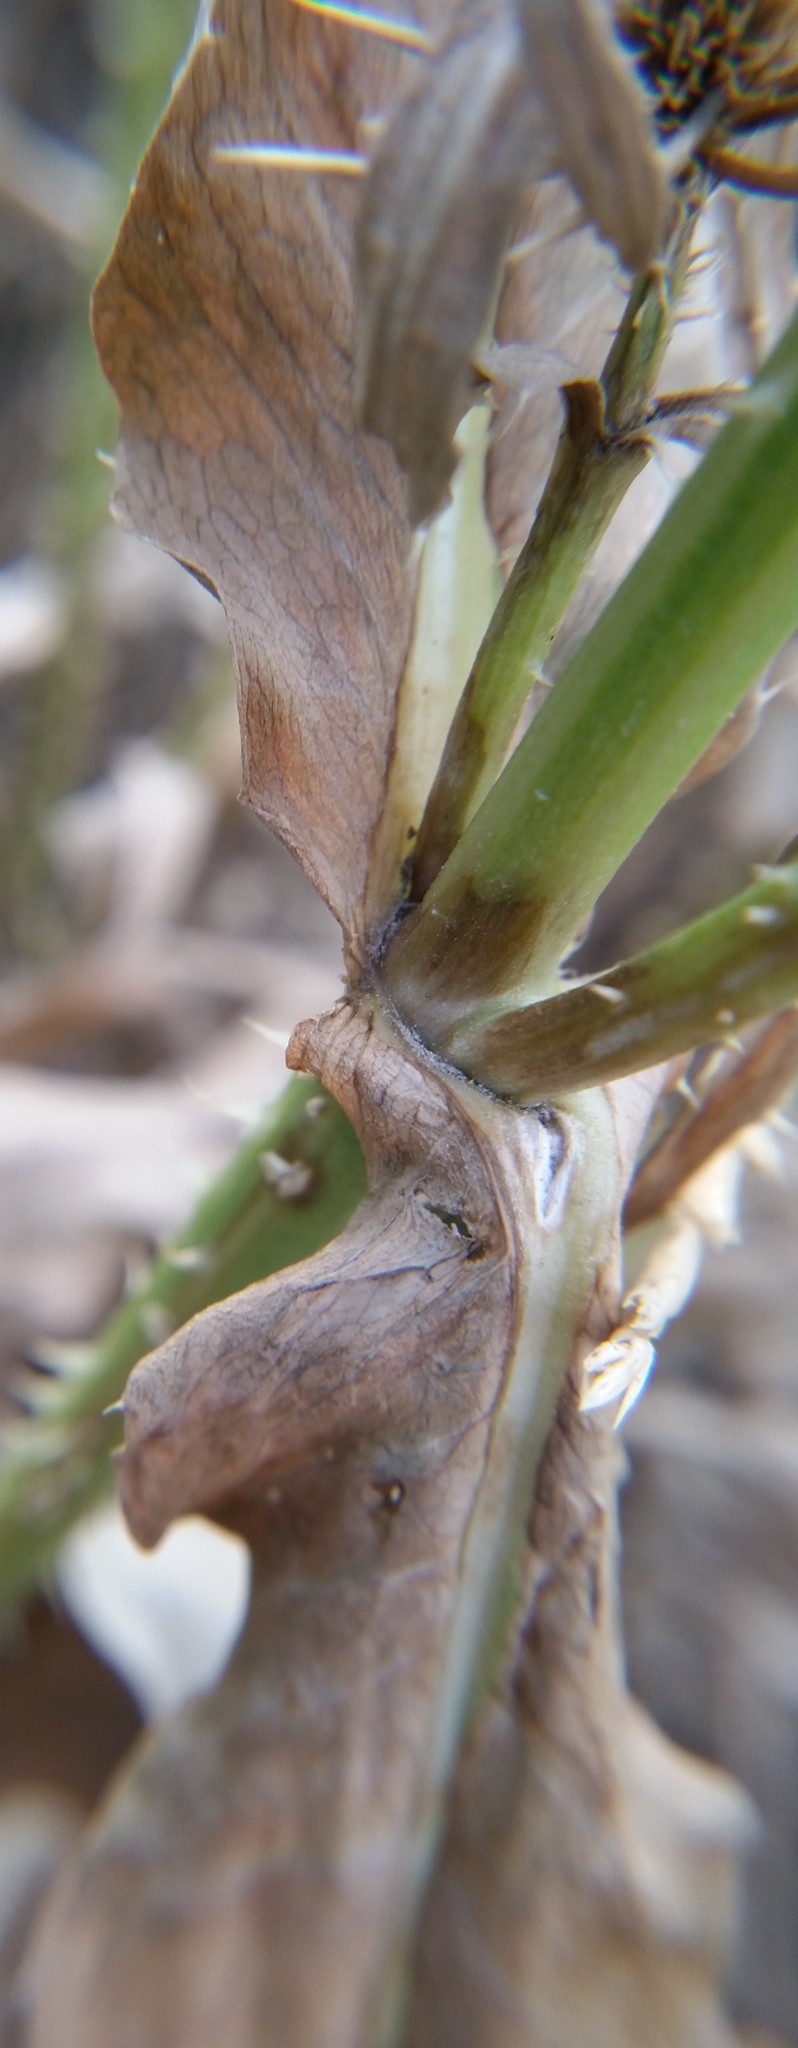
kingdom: Plantae
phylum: Tracheophyta
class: Magnoliopsida
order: Dipsacales
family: Caprifoliaceae
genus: Dipsacus
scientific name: Dipsacus fullonum
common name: Teasel
